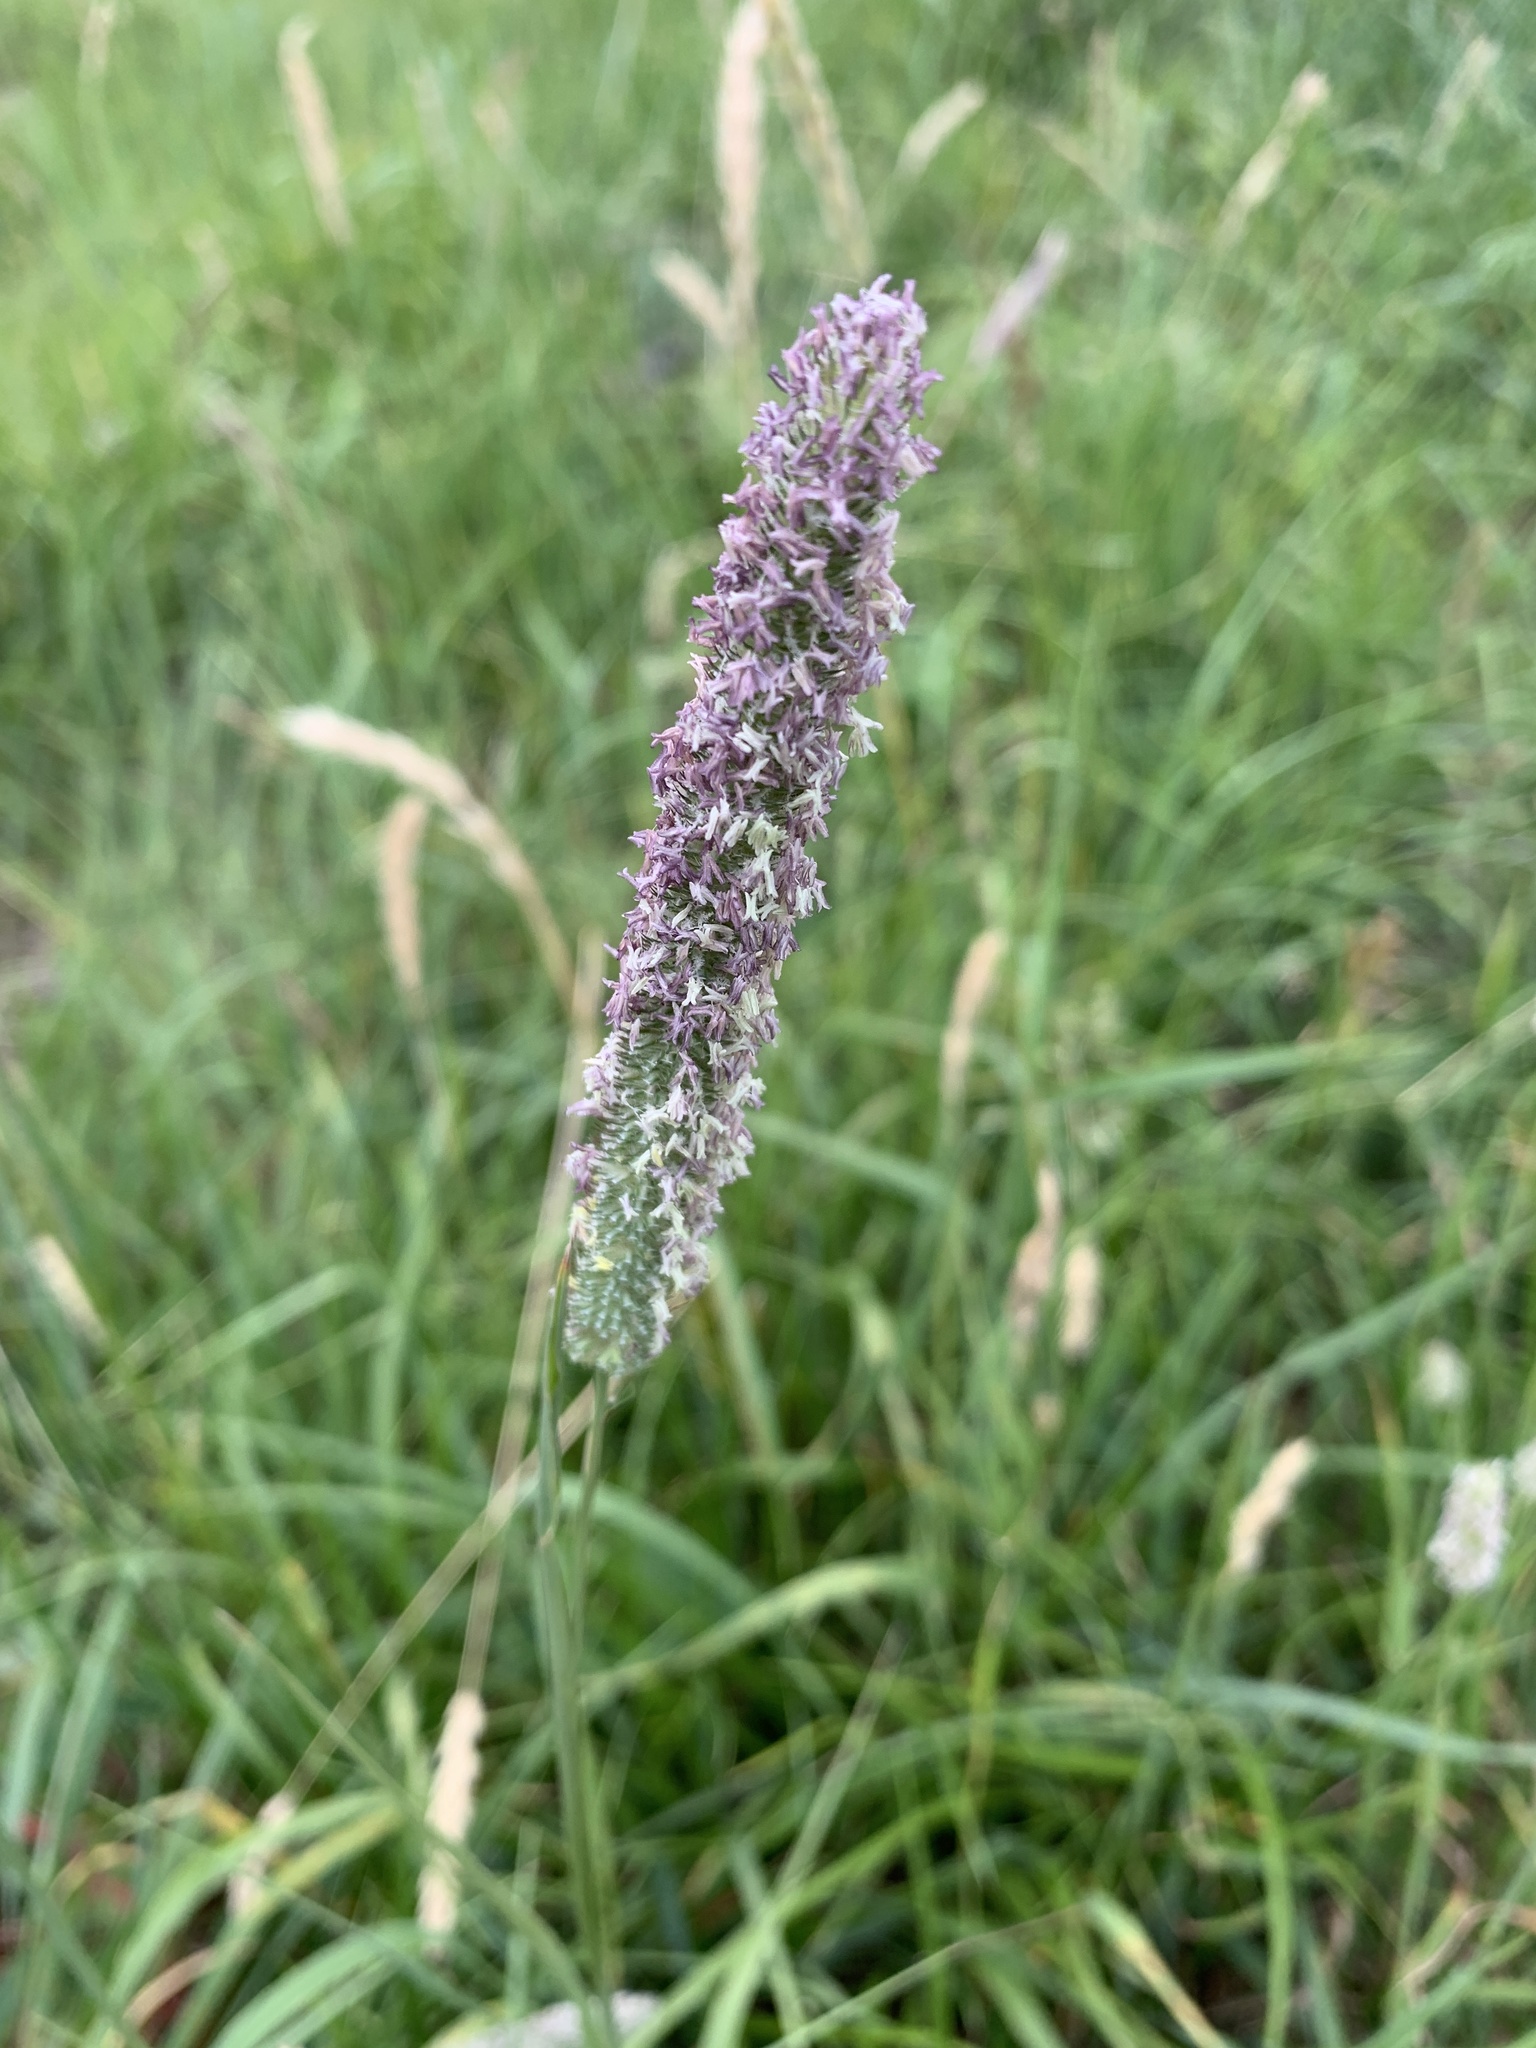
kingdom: Plantae
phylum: Tracheophyta
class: Liliopsida
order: Poales
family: Poaceae
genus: Phleum
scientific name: Phleum pratense
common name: Timothy grass
